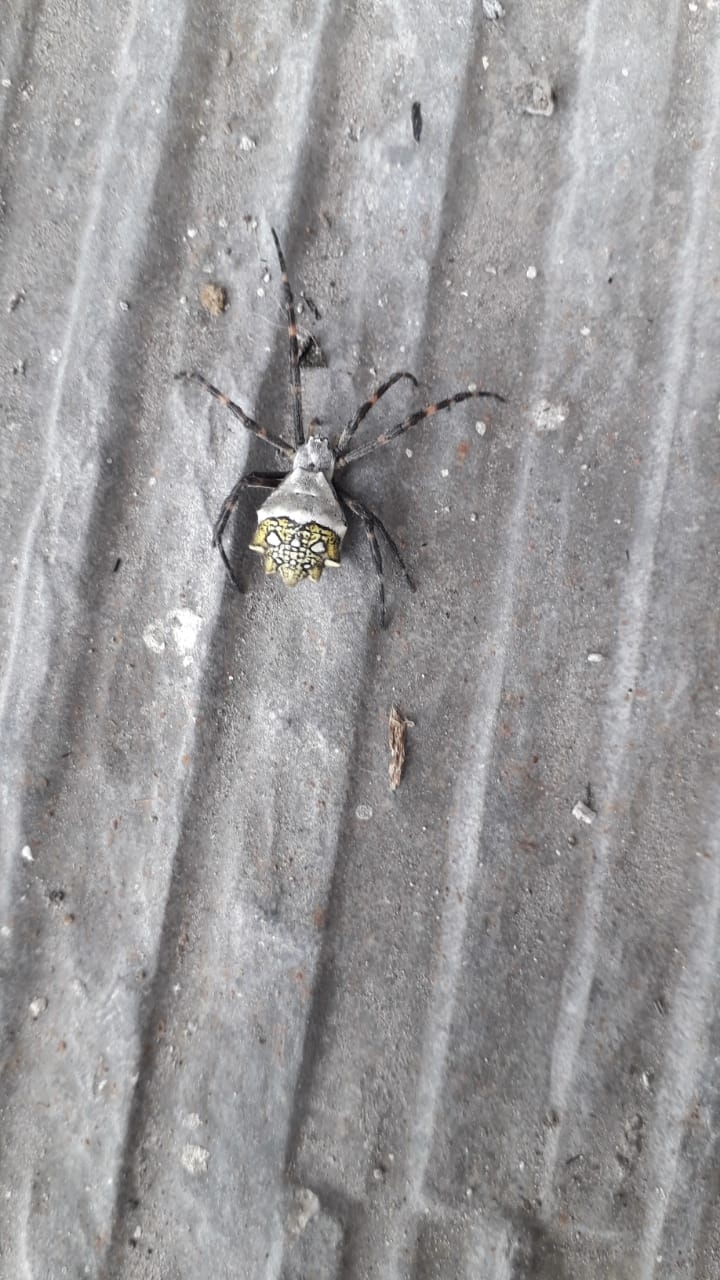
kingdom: Animalia
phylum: Arthropoda
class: Arachnida
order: Araneae
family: Araneidae
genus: Argiope
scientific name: Argiope argentata
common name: Orb weavers
